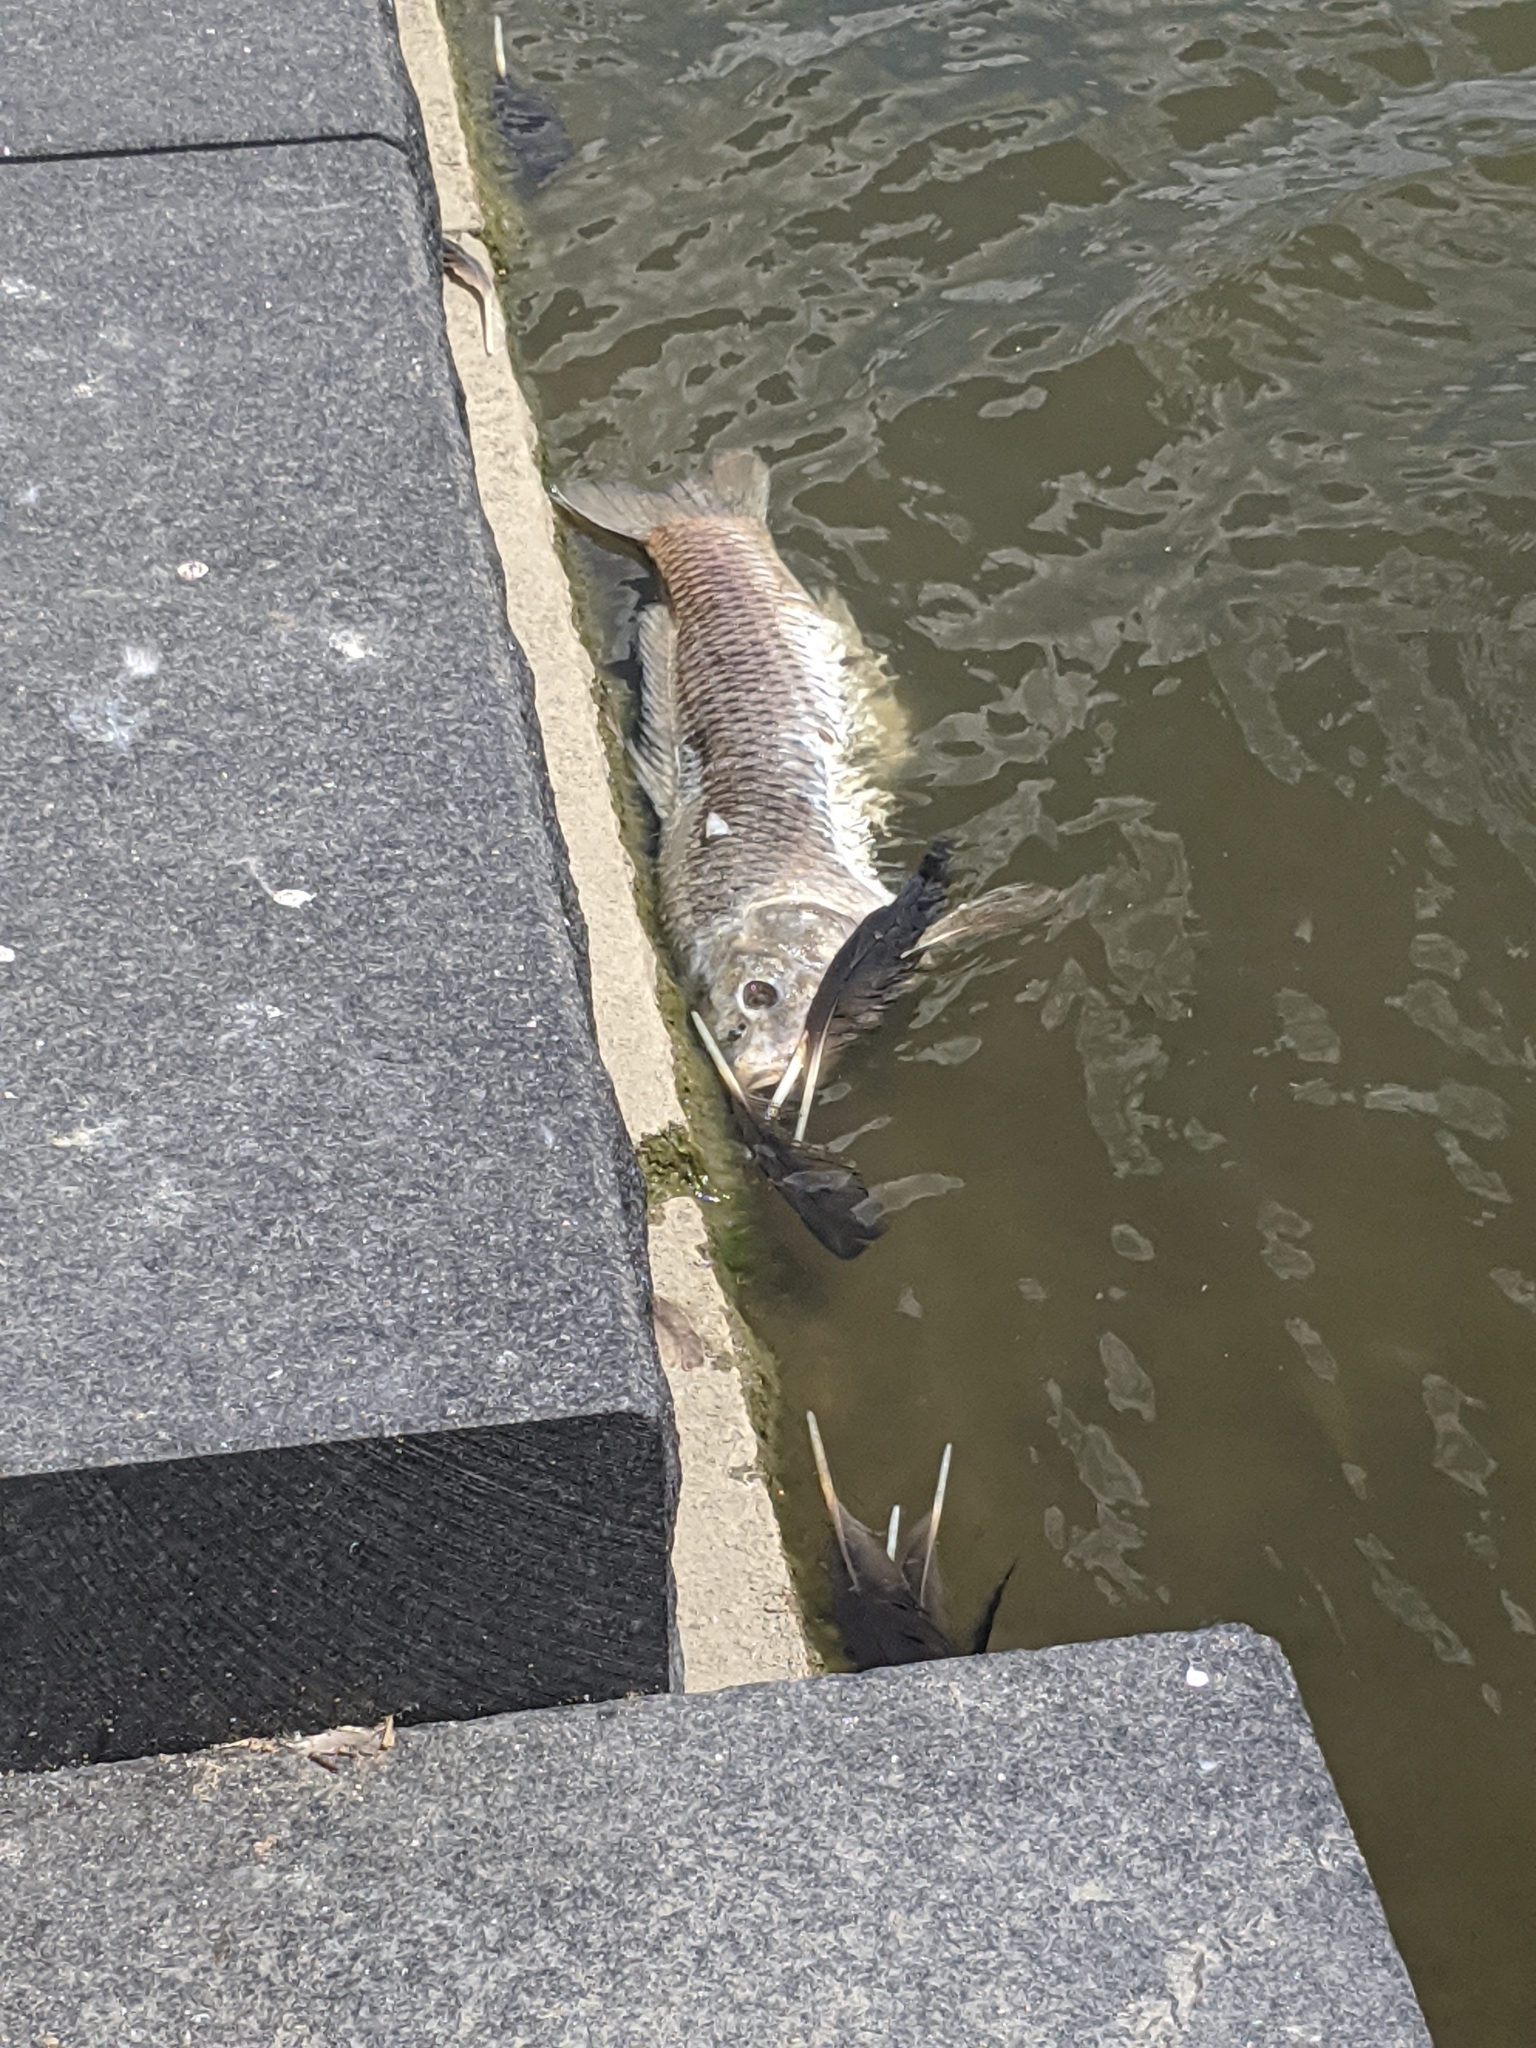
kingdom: Animalia
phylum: Chordata
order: Cypriniformes
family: Cyprinidae
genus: Cyprinus
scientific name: Cyprinus carpio
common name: Common carp
